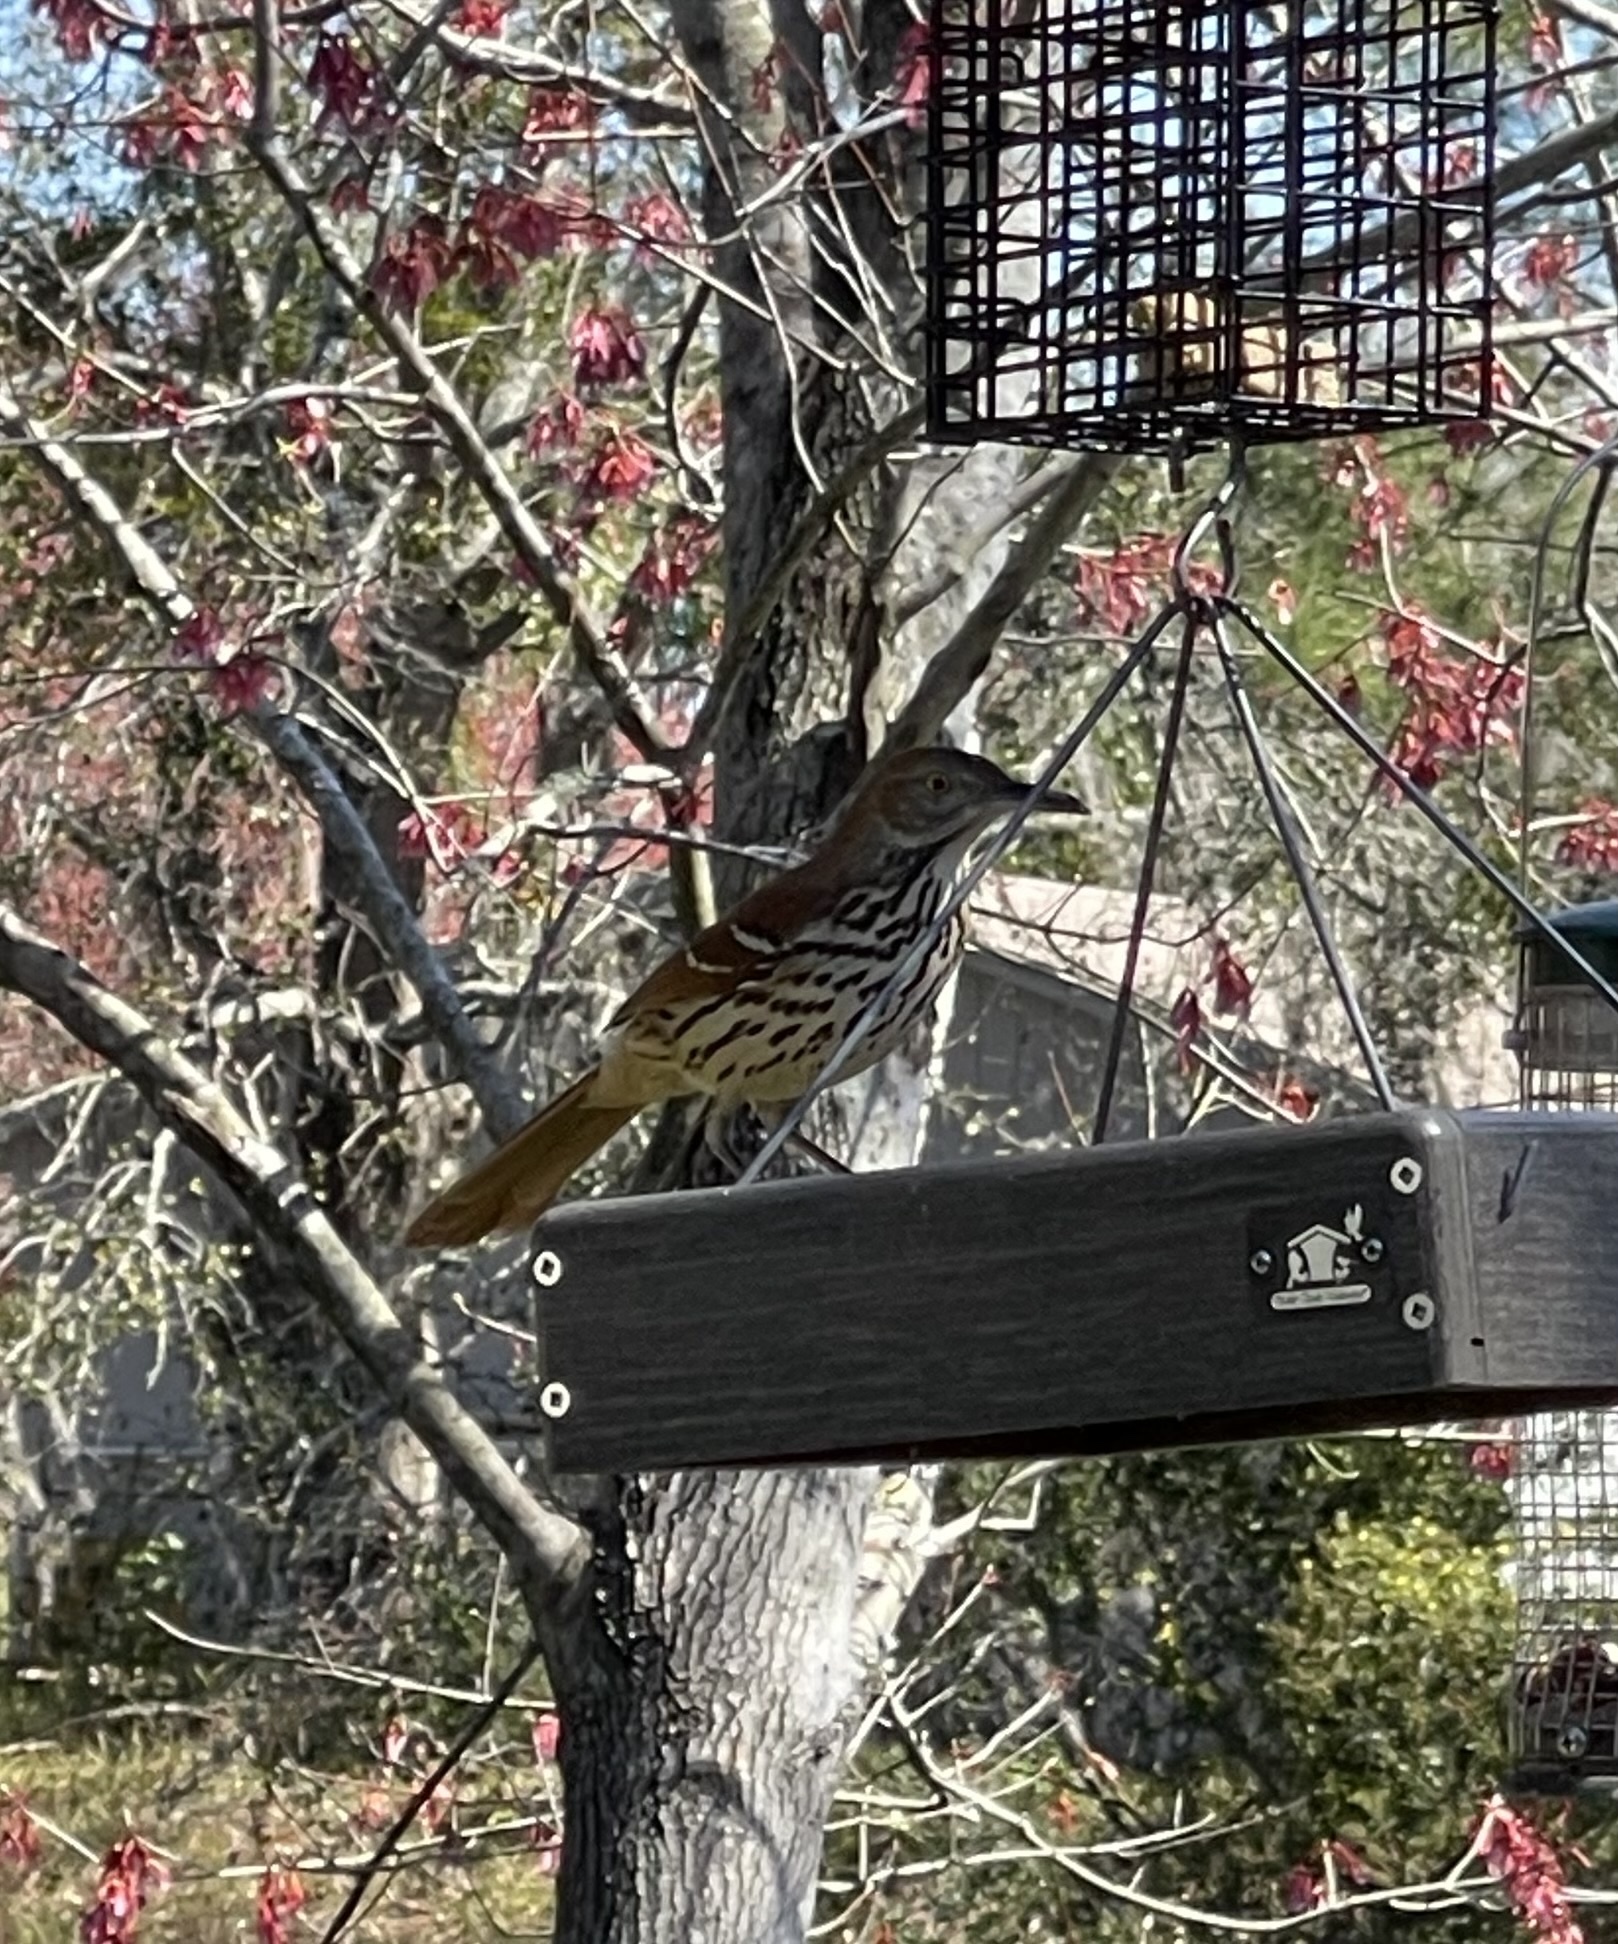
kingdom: Animalia
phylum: Chordata
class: Aves
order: Passeriformes
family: Mimidae
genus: Toxostoma
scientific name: Toxostoma rufum
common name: Brown thrasher
